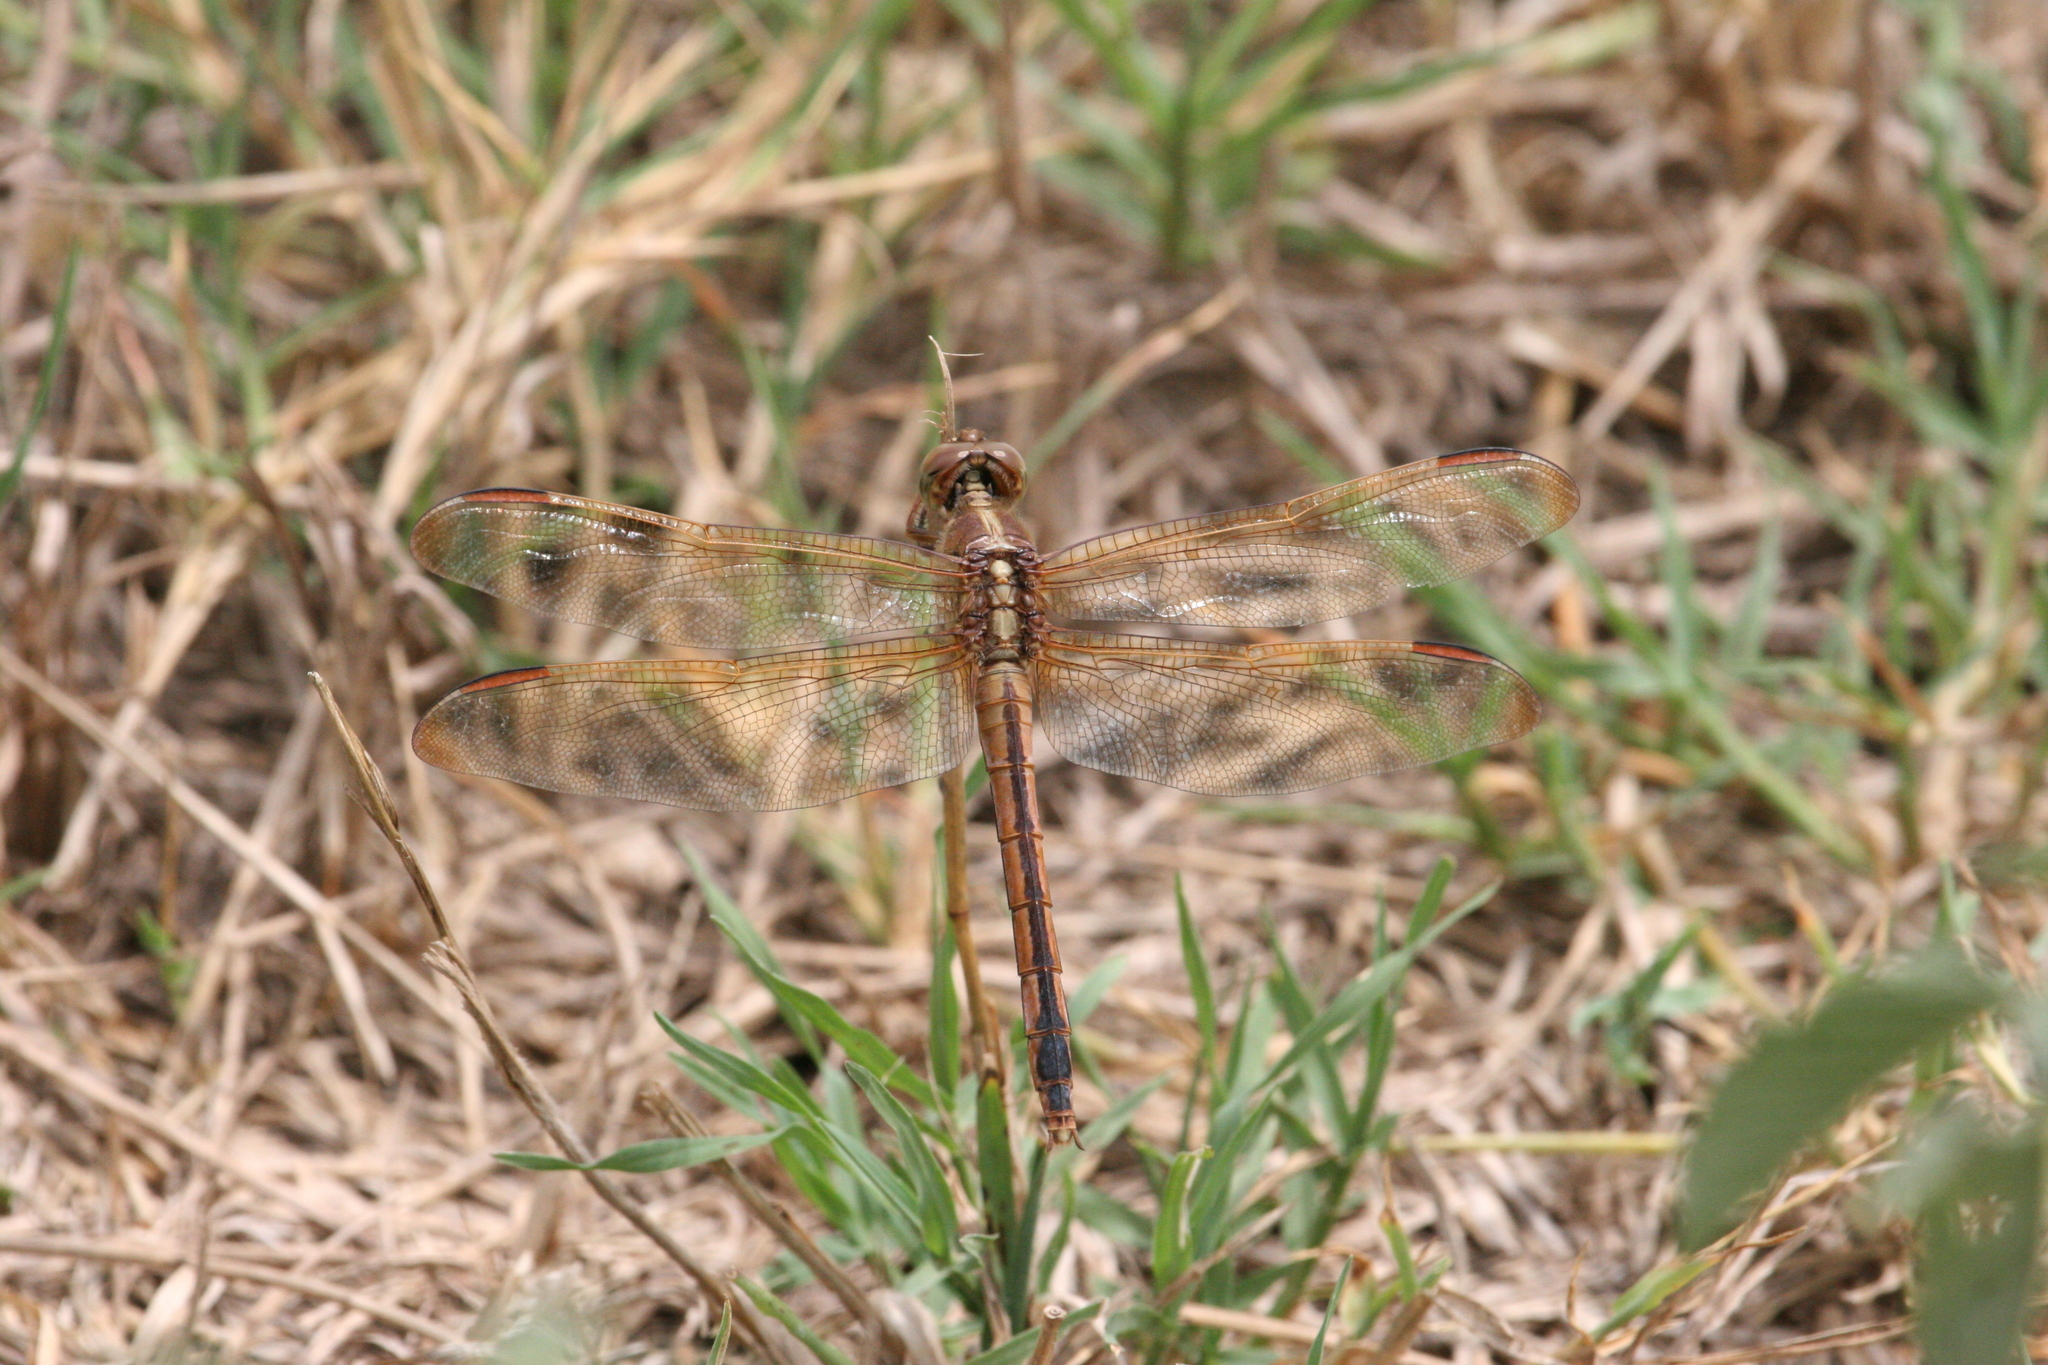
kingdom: Animalia
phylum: Arthropoda
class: Insecta
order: Odonata
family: Libellulidae
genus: Libellula
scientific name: Libellula needhami
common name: Needham's skimmer
